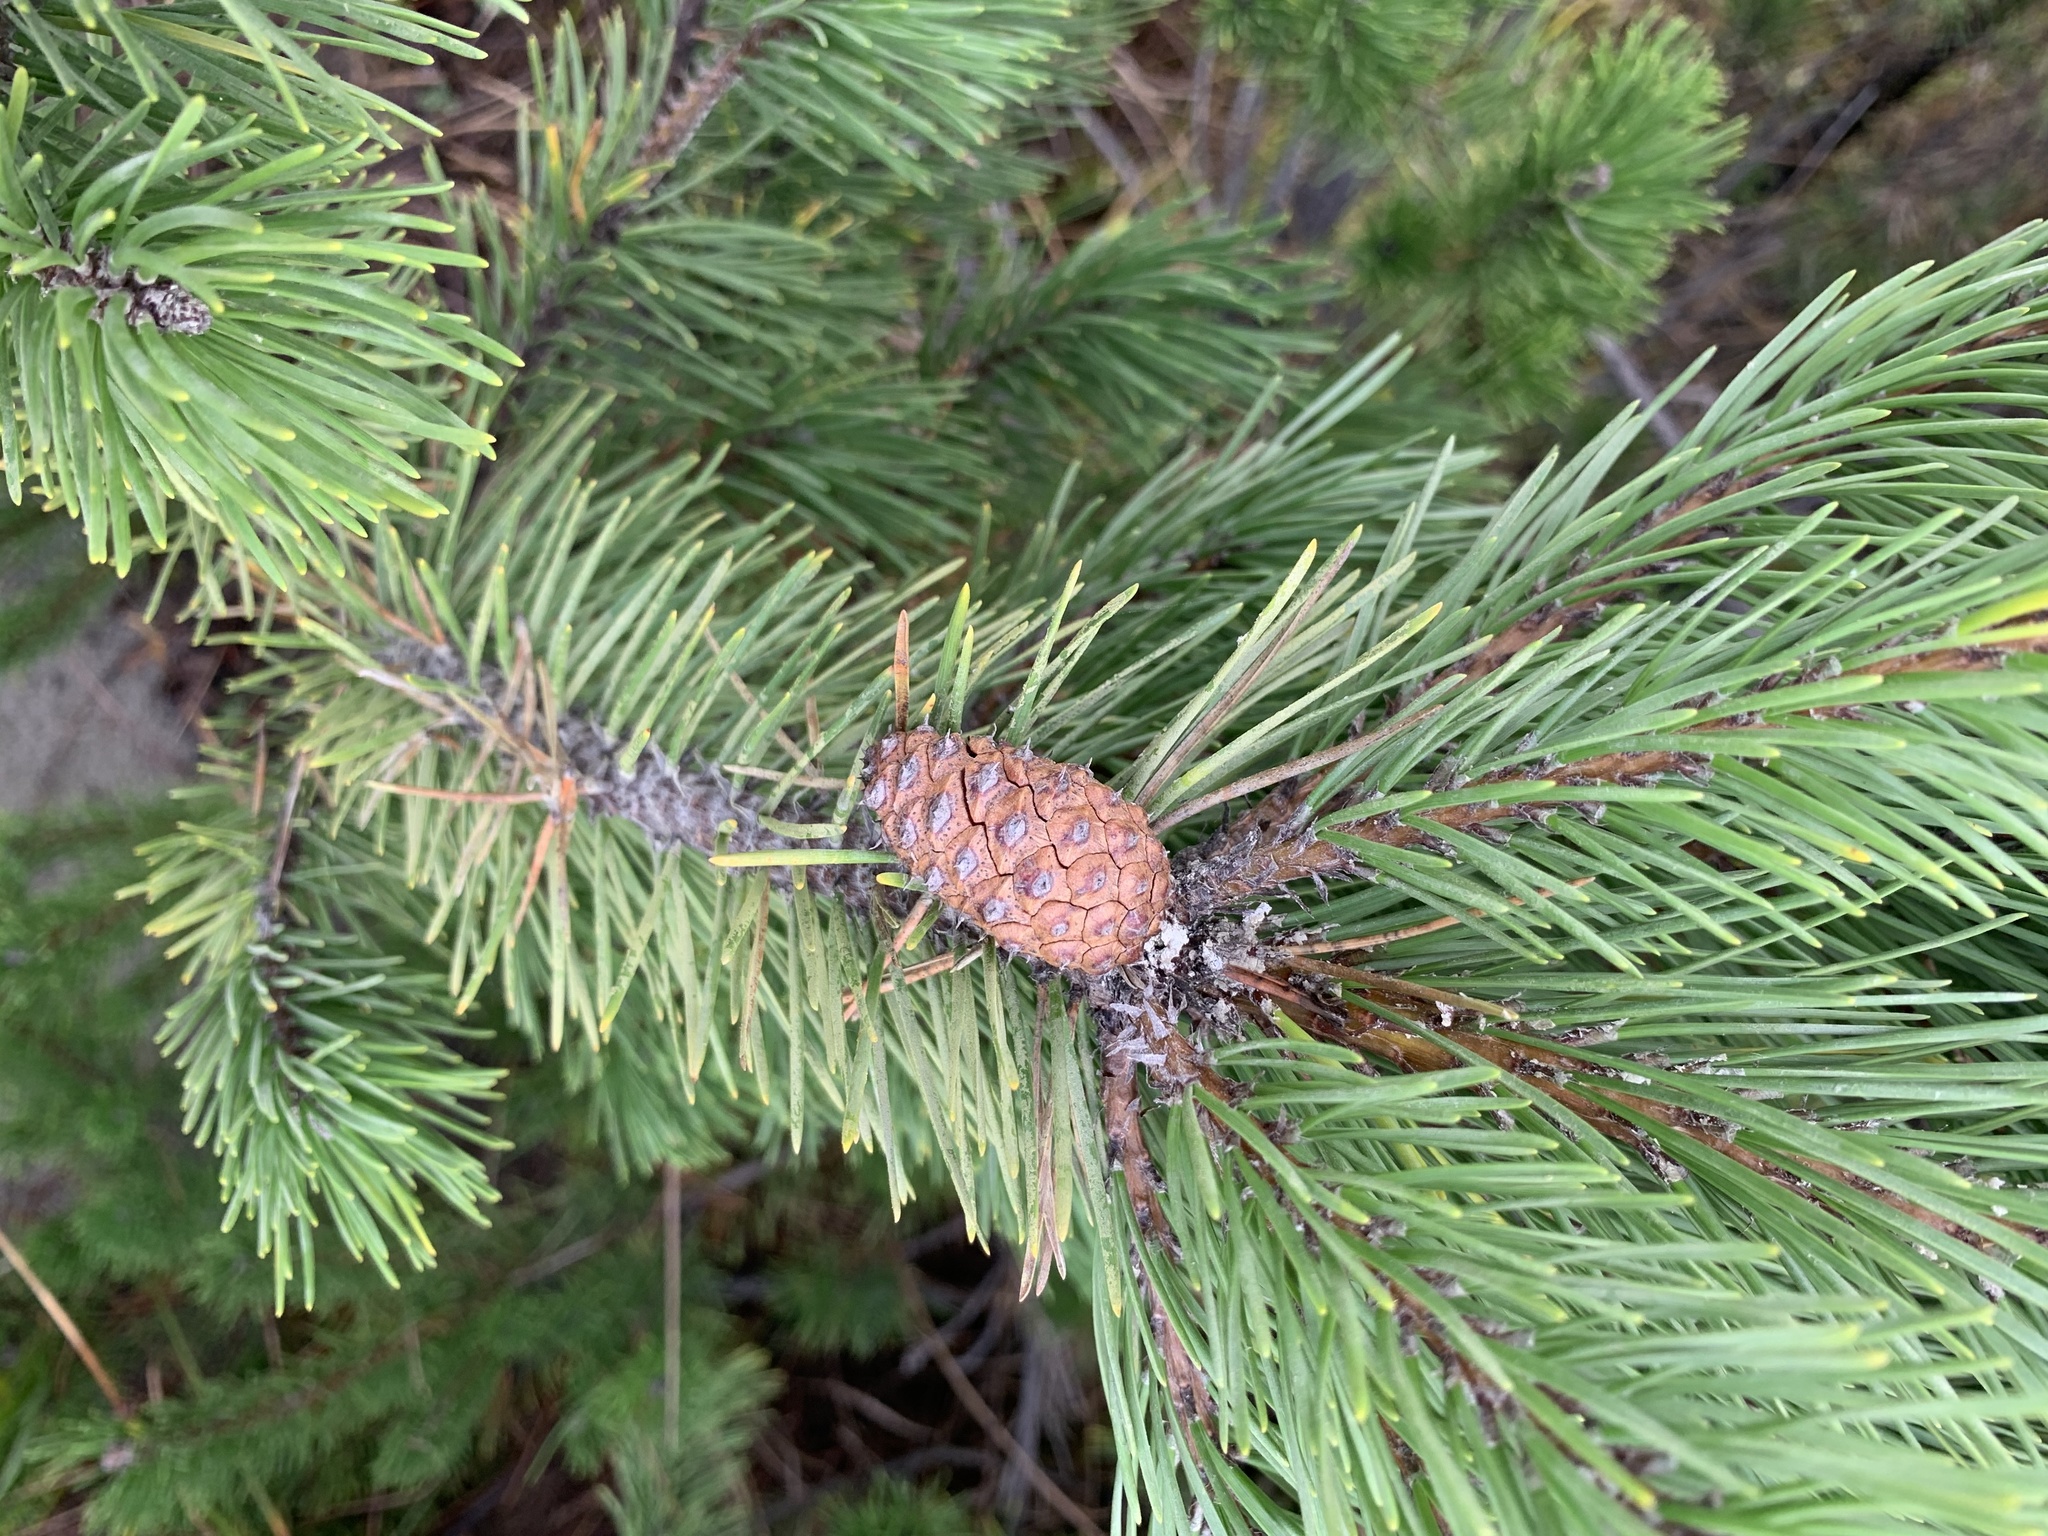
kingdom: Plantae
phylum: Tracheophyta
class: Pinopsida
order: Pinales
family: Pinaceae
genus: Pinus
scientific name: Pinus contorta
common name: Lodgepole pine
